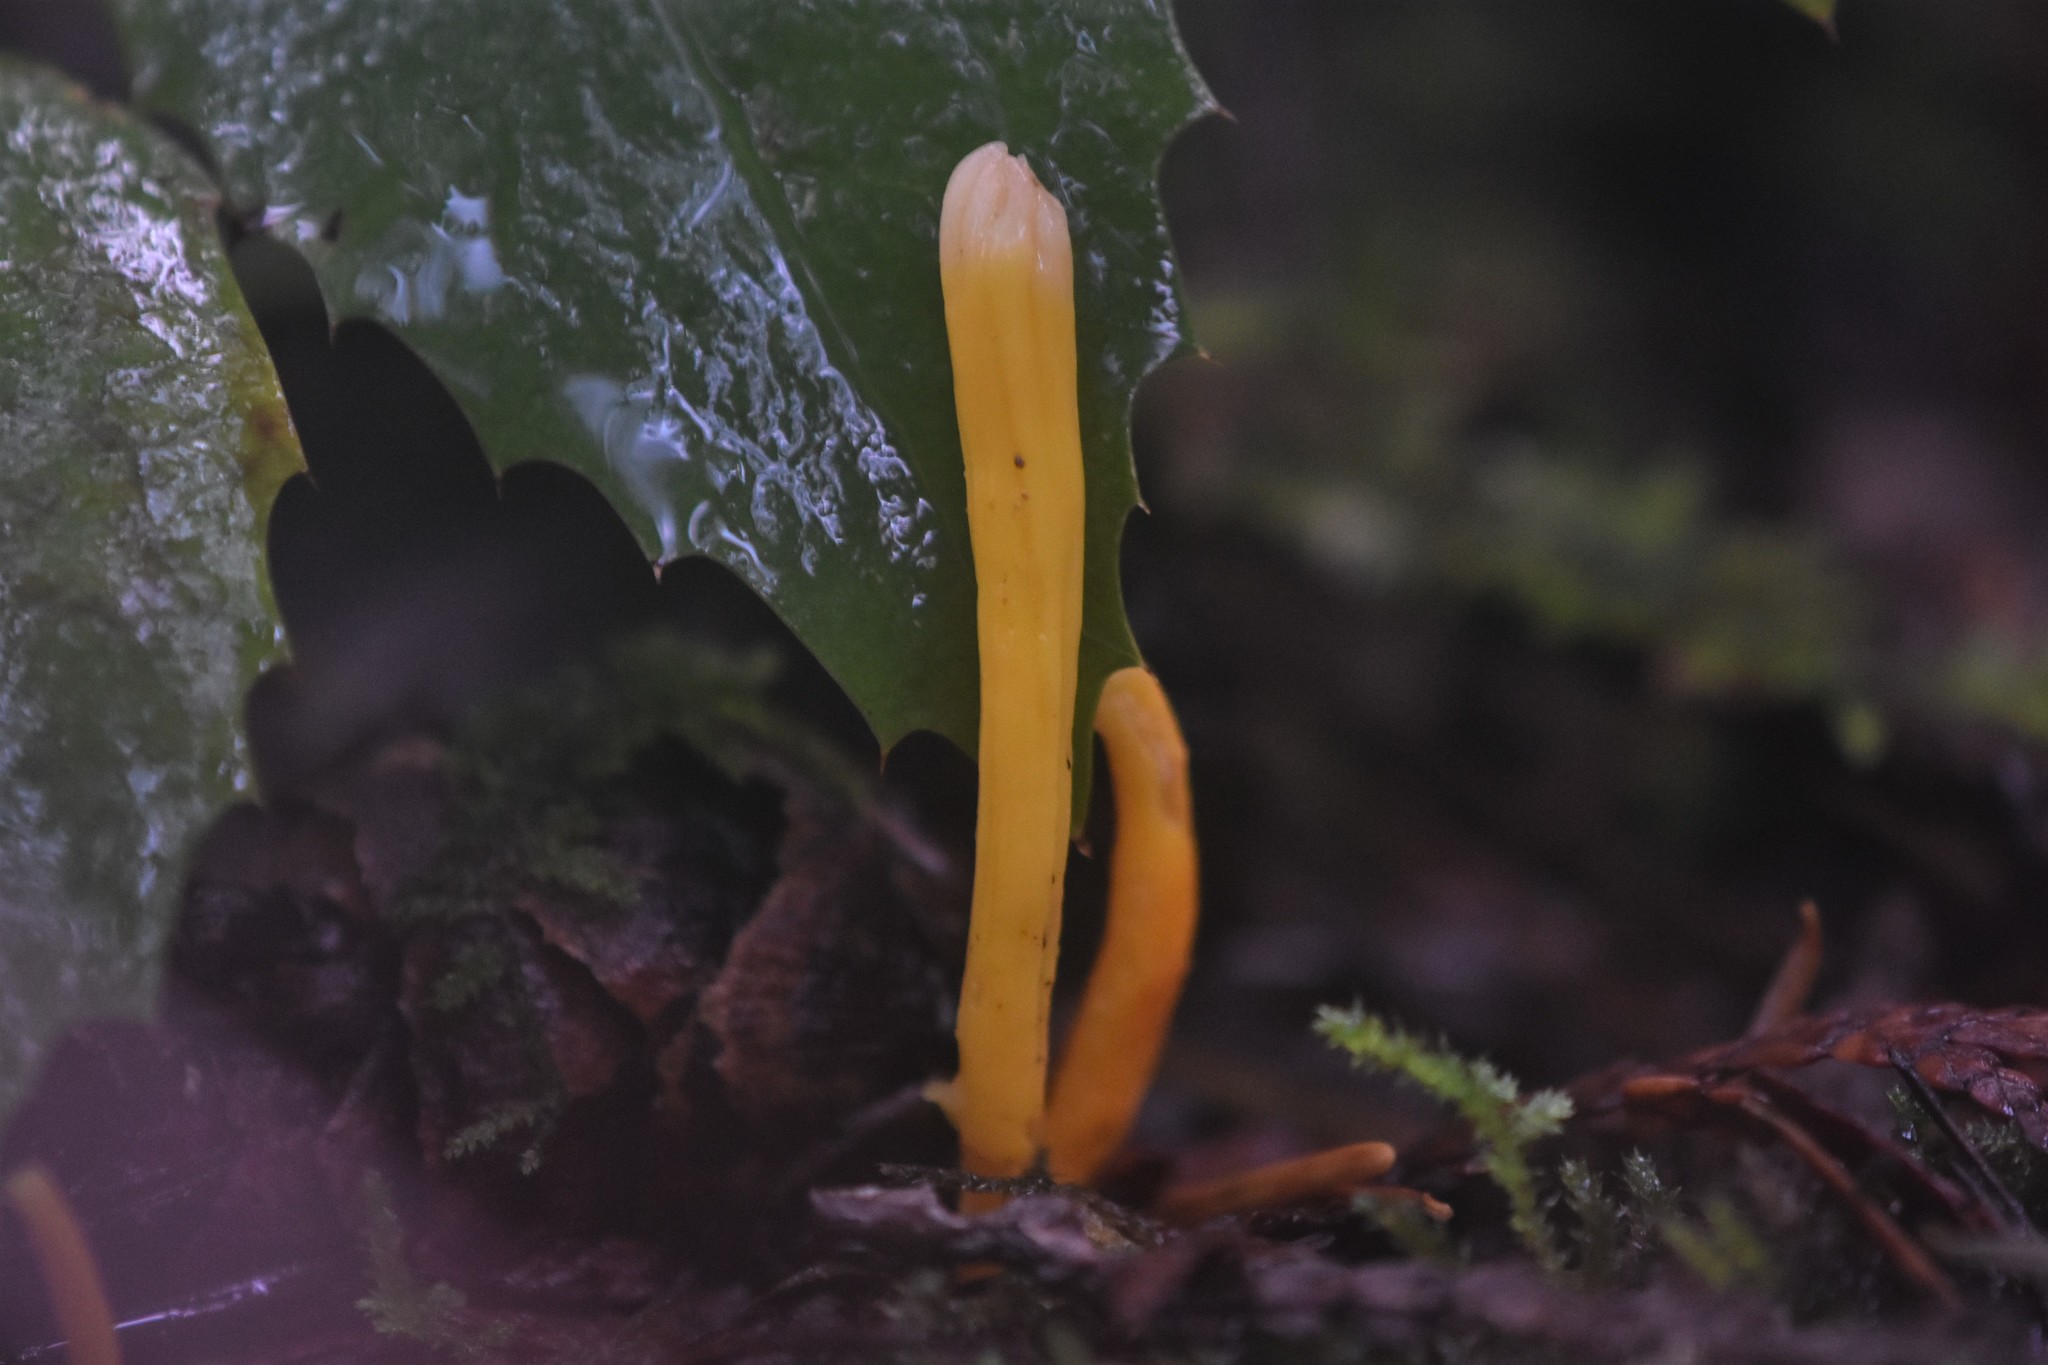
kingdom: Fungi
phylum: Basidiomycota
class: Agaricomycetes
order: Agaricales
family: Clavariaceae
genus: Clavulinopsis
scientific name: Clavulinopsis laeticolor
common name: Handsome club
